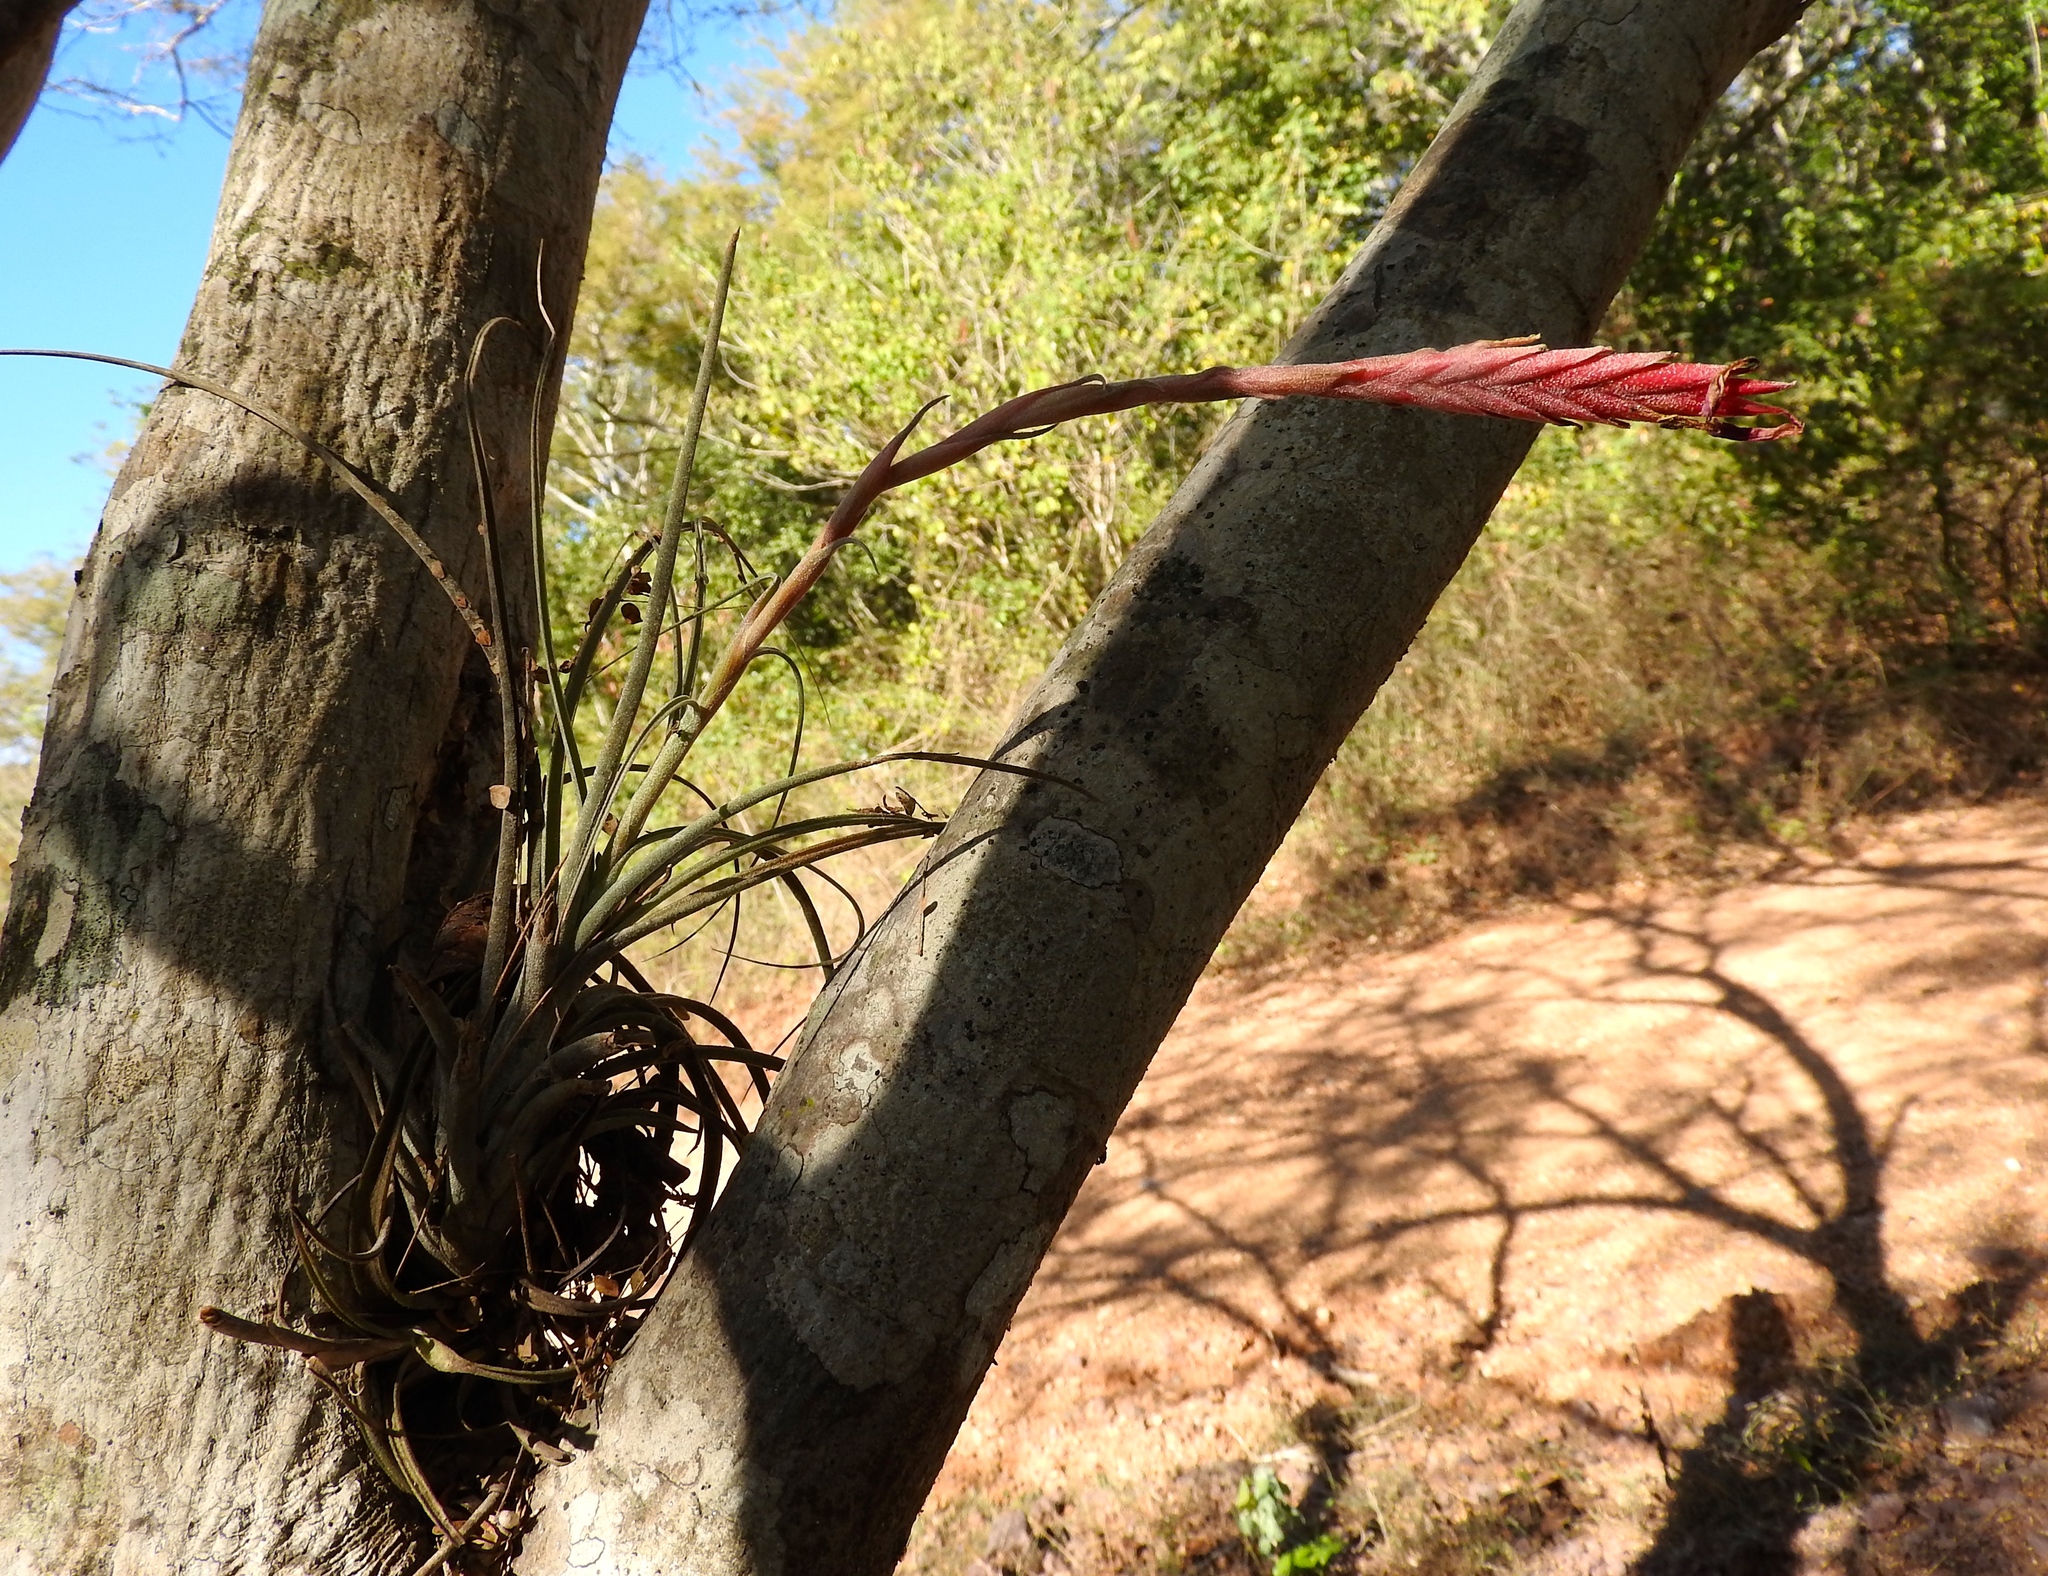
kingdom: Plantae
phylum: Tracheophyta
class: Liliopsida
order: Poales
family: Bromeliaceae
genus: Tillandsia
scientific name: Tillandsia exserta
